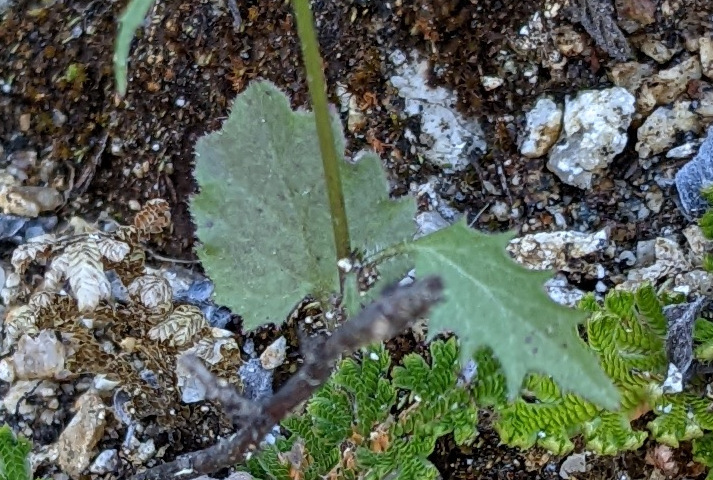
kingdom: Plantae
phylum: Tracheophyta
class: Magnoliopsida
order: Asterales
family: Campanulaceae
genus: Lobelia
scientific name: Lobelia aurita
